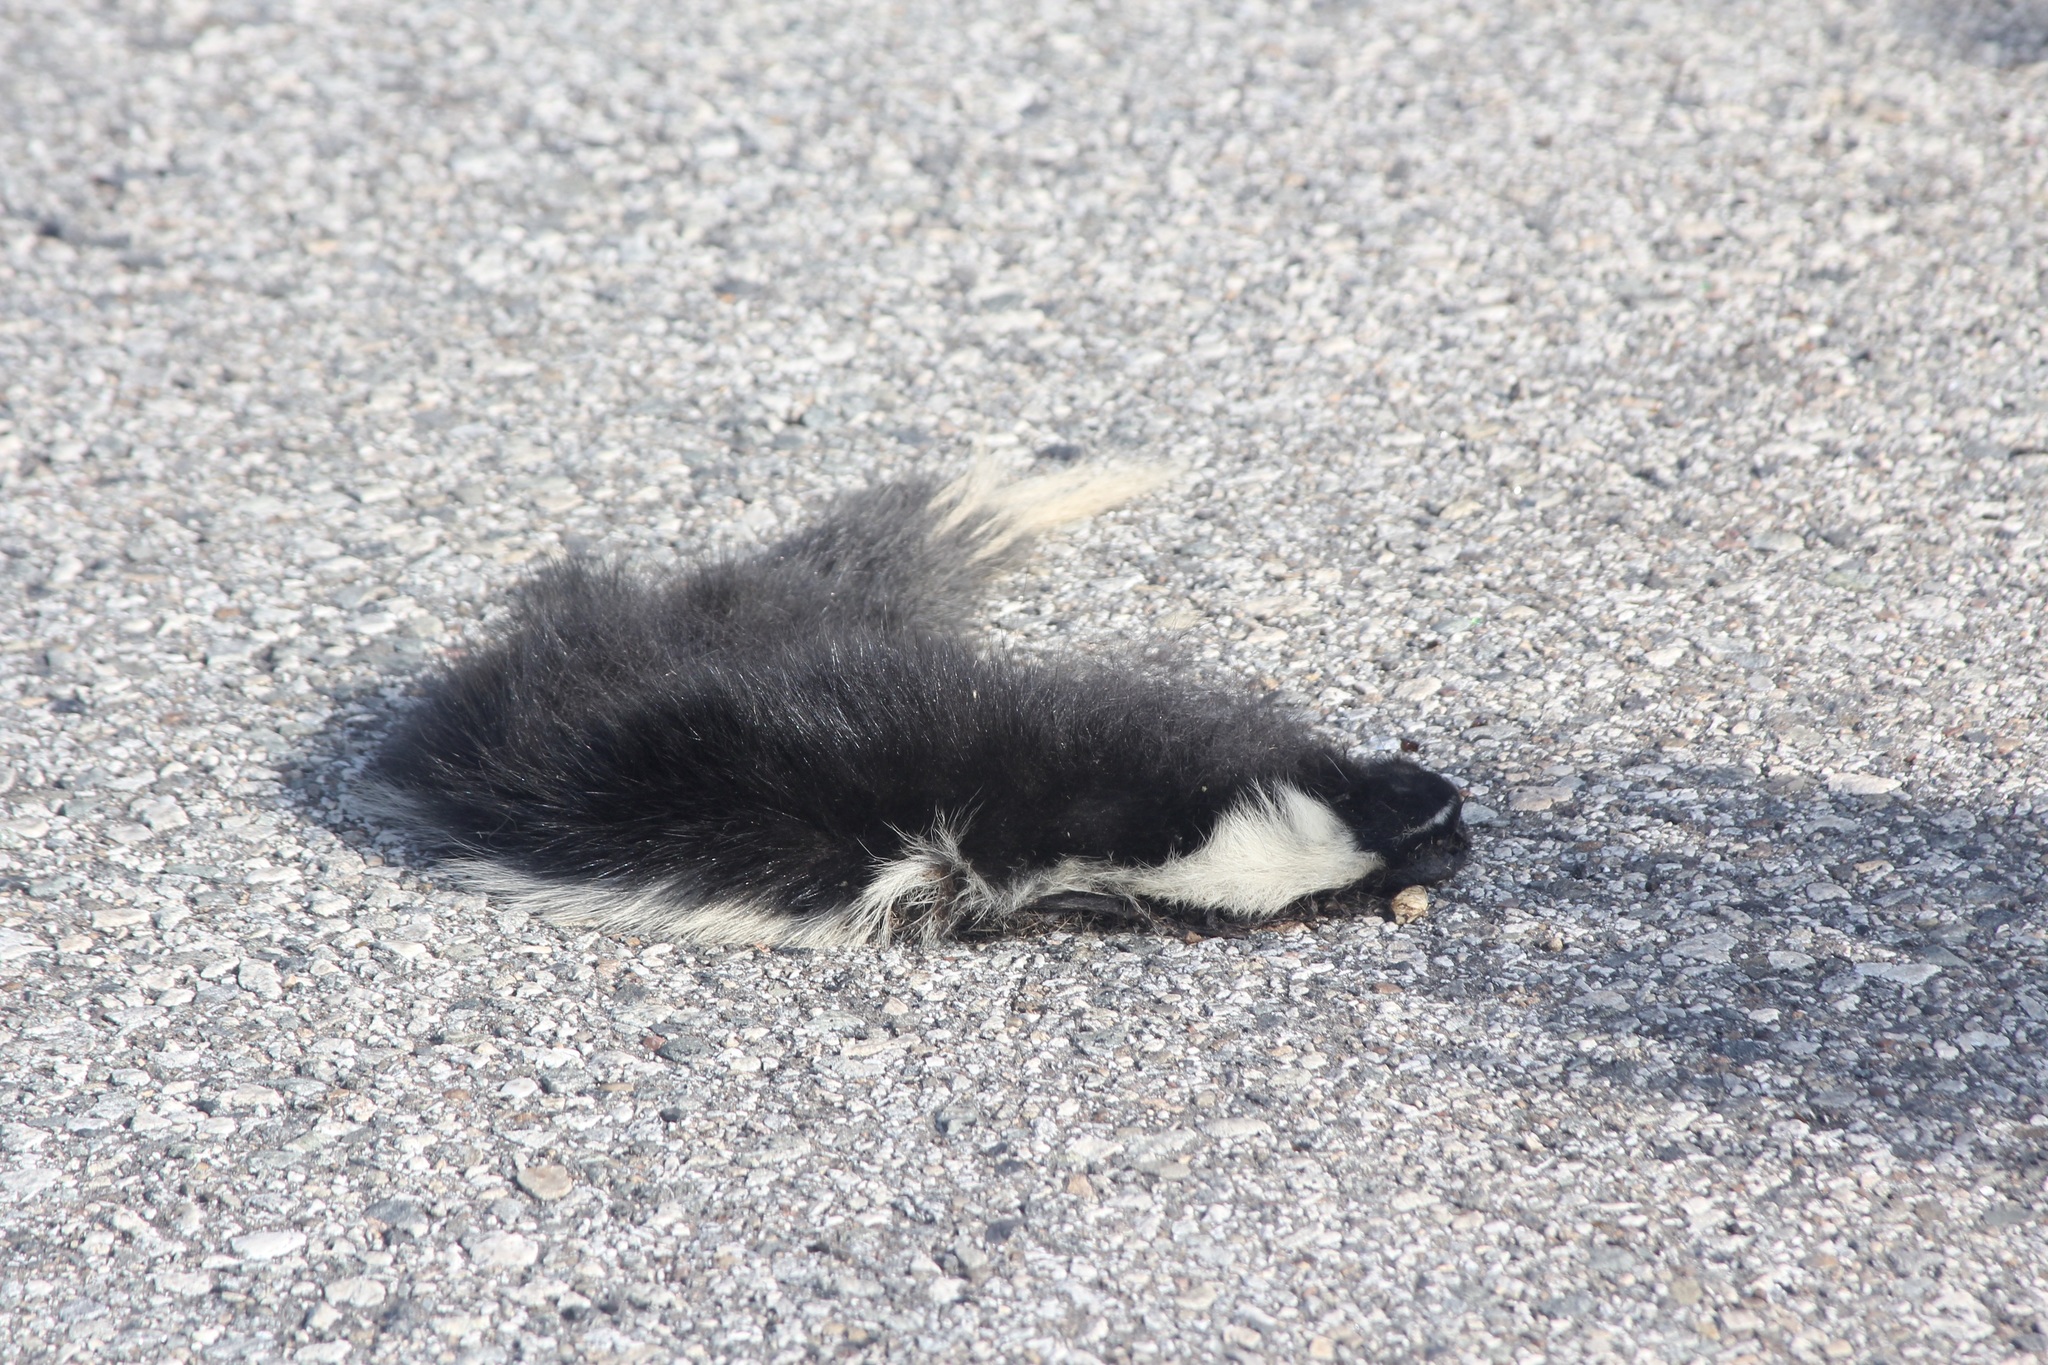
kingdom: Animalia
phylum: Chordata
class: Mammalia
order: Carnivora
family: Mephitidae
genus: Mephitis
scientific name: Mephitis mephitis
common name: Striped skunk
